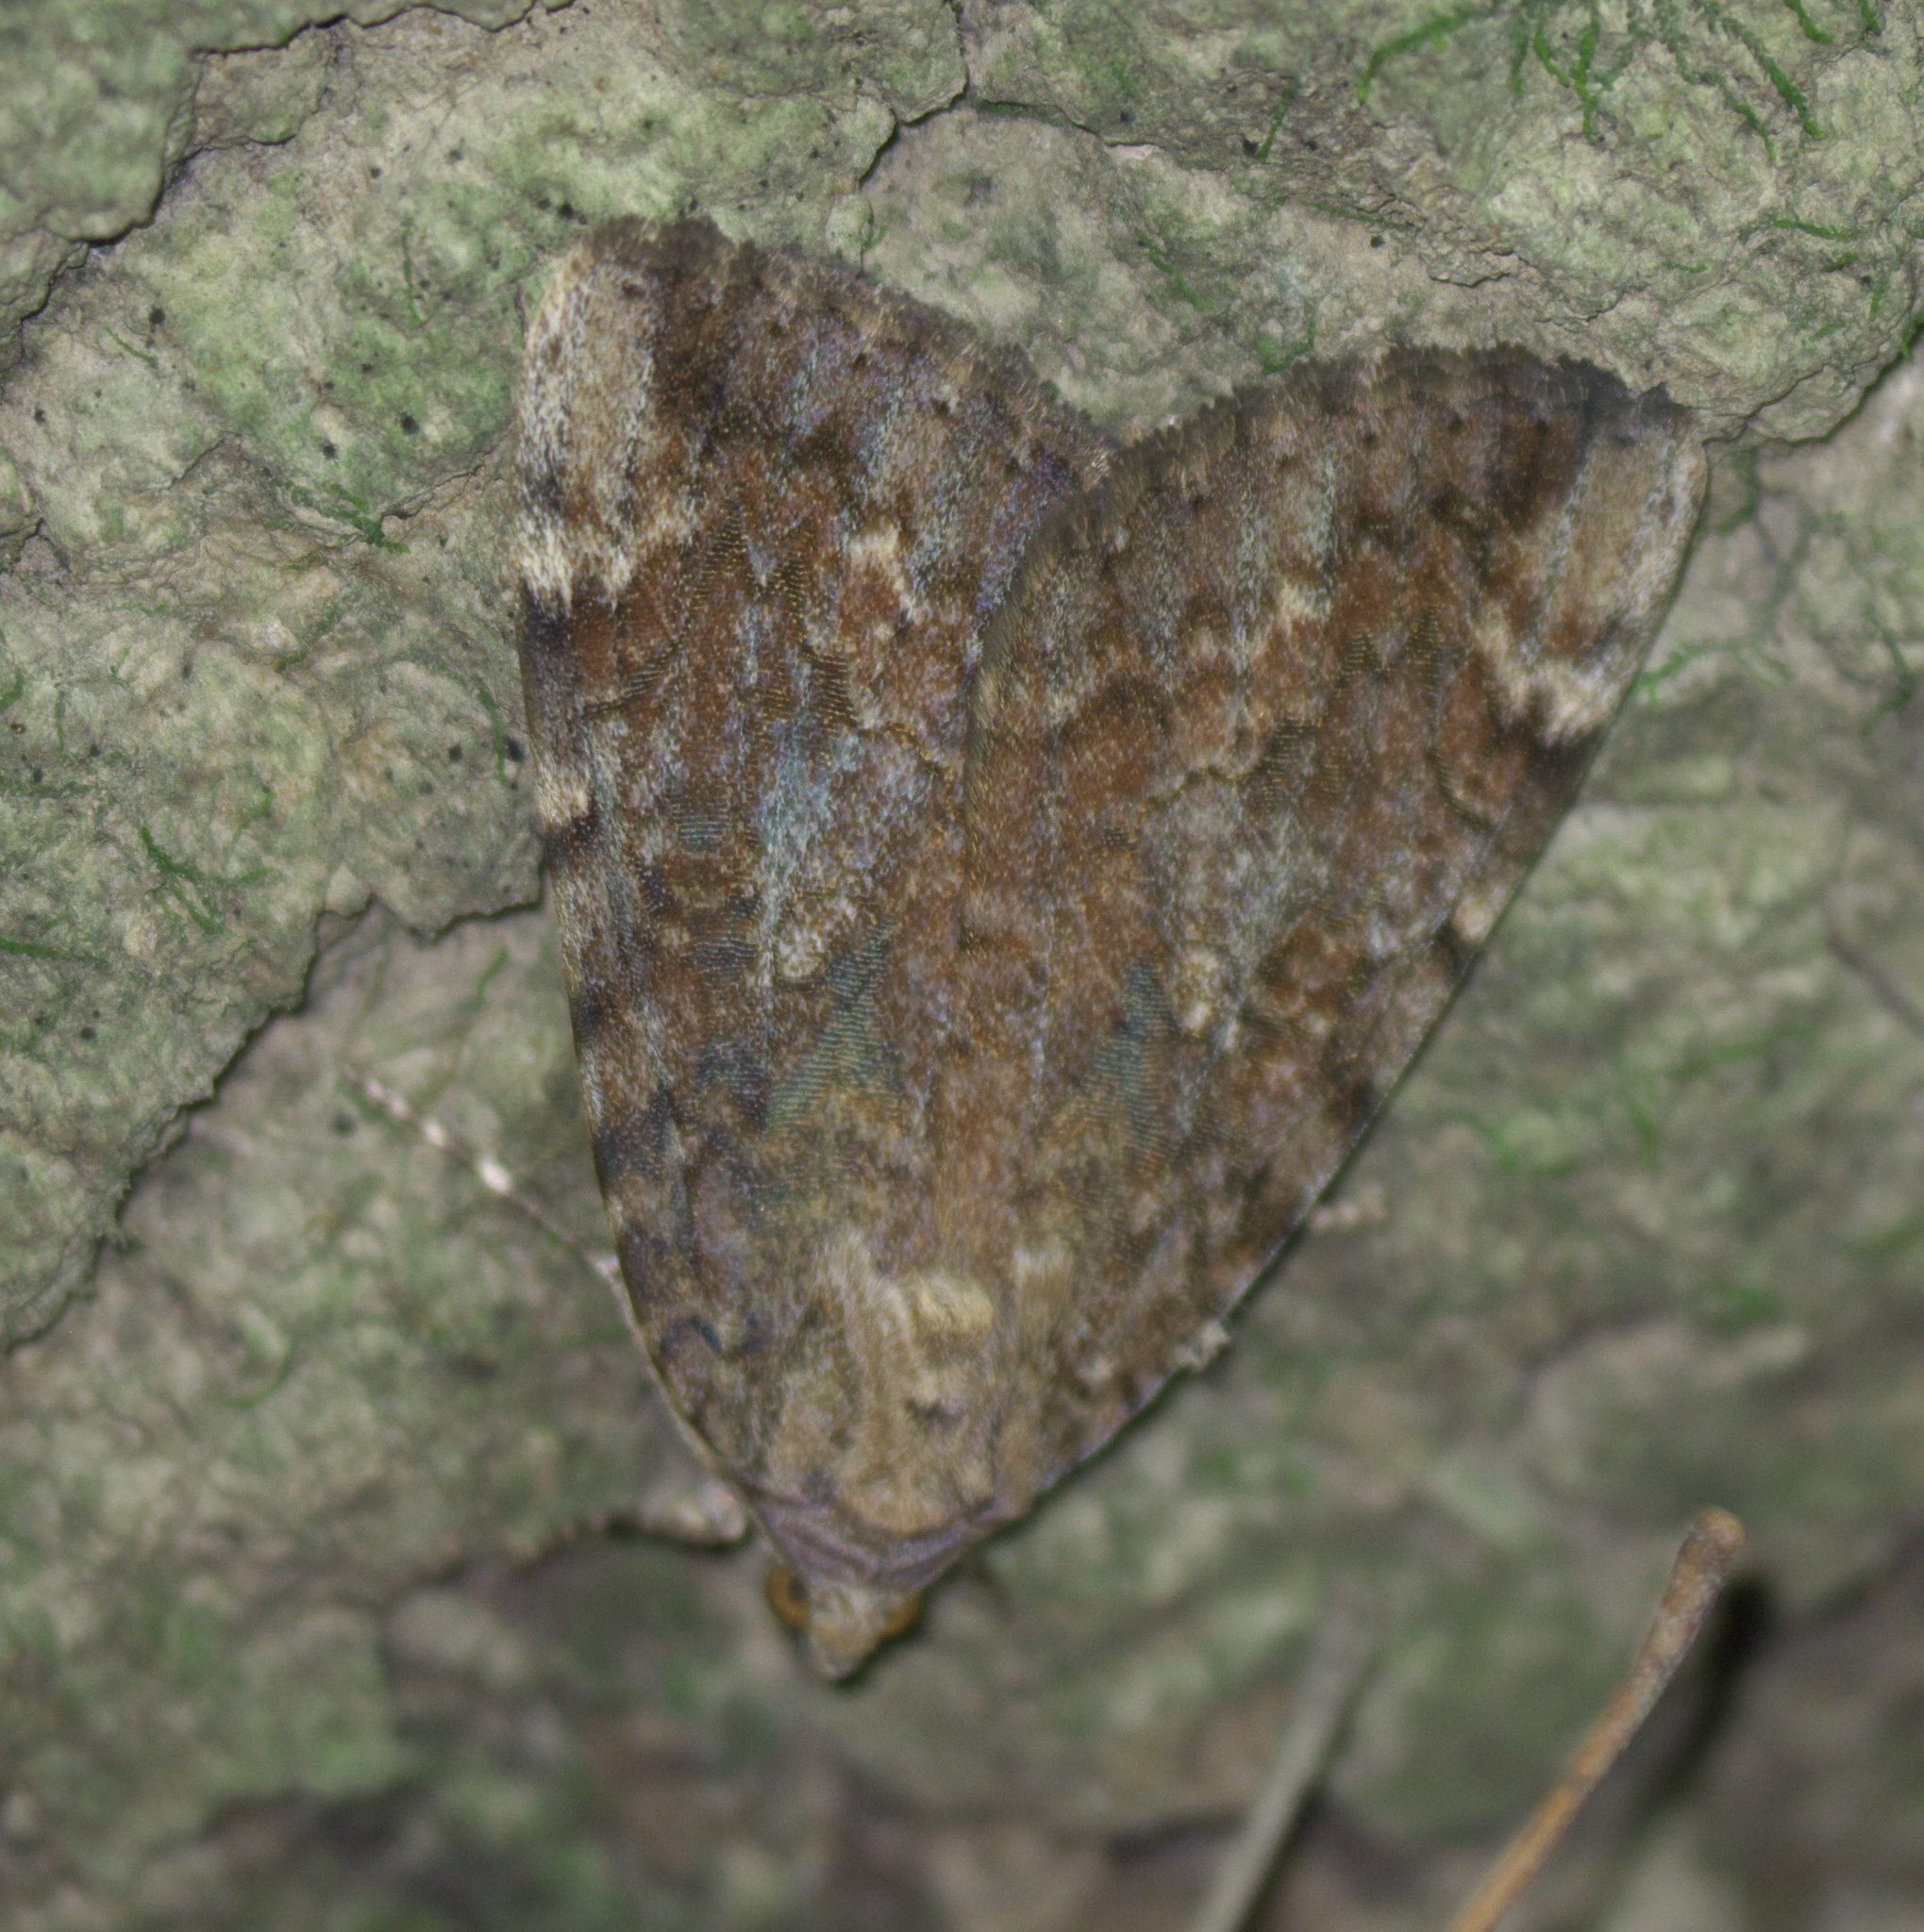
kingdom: Animalia
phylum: Arthropoda
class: Insecta
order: Lepidoptera
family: Erebidae
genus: Catocala
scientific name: Catocala innubens
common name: Betrothed underwing
